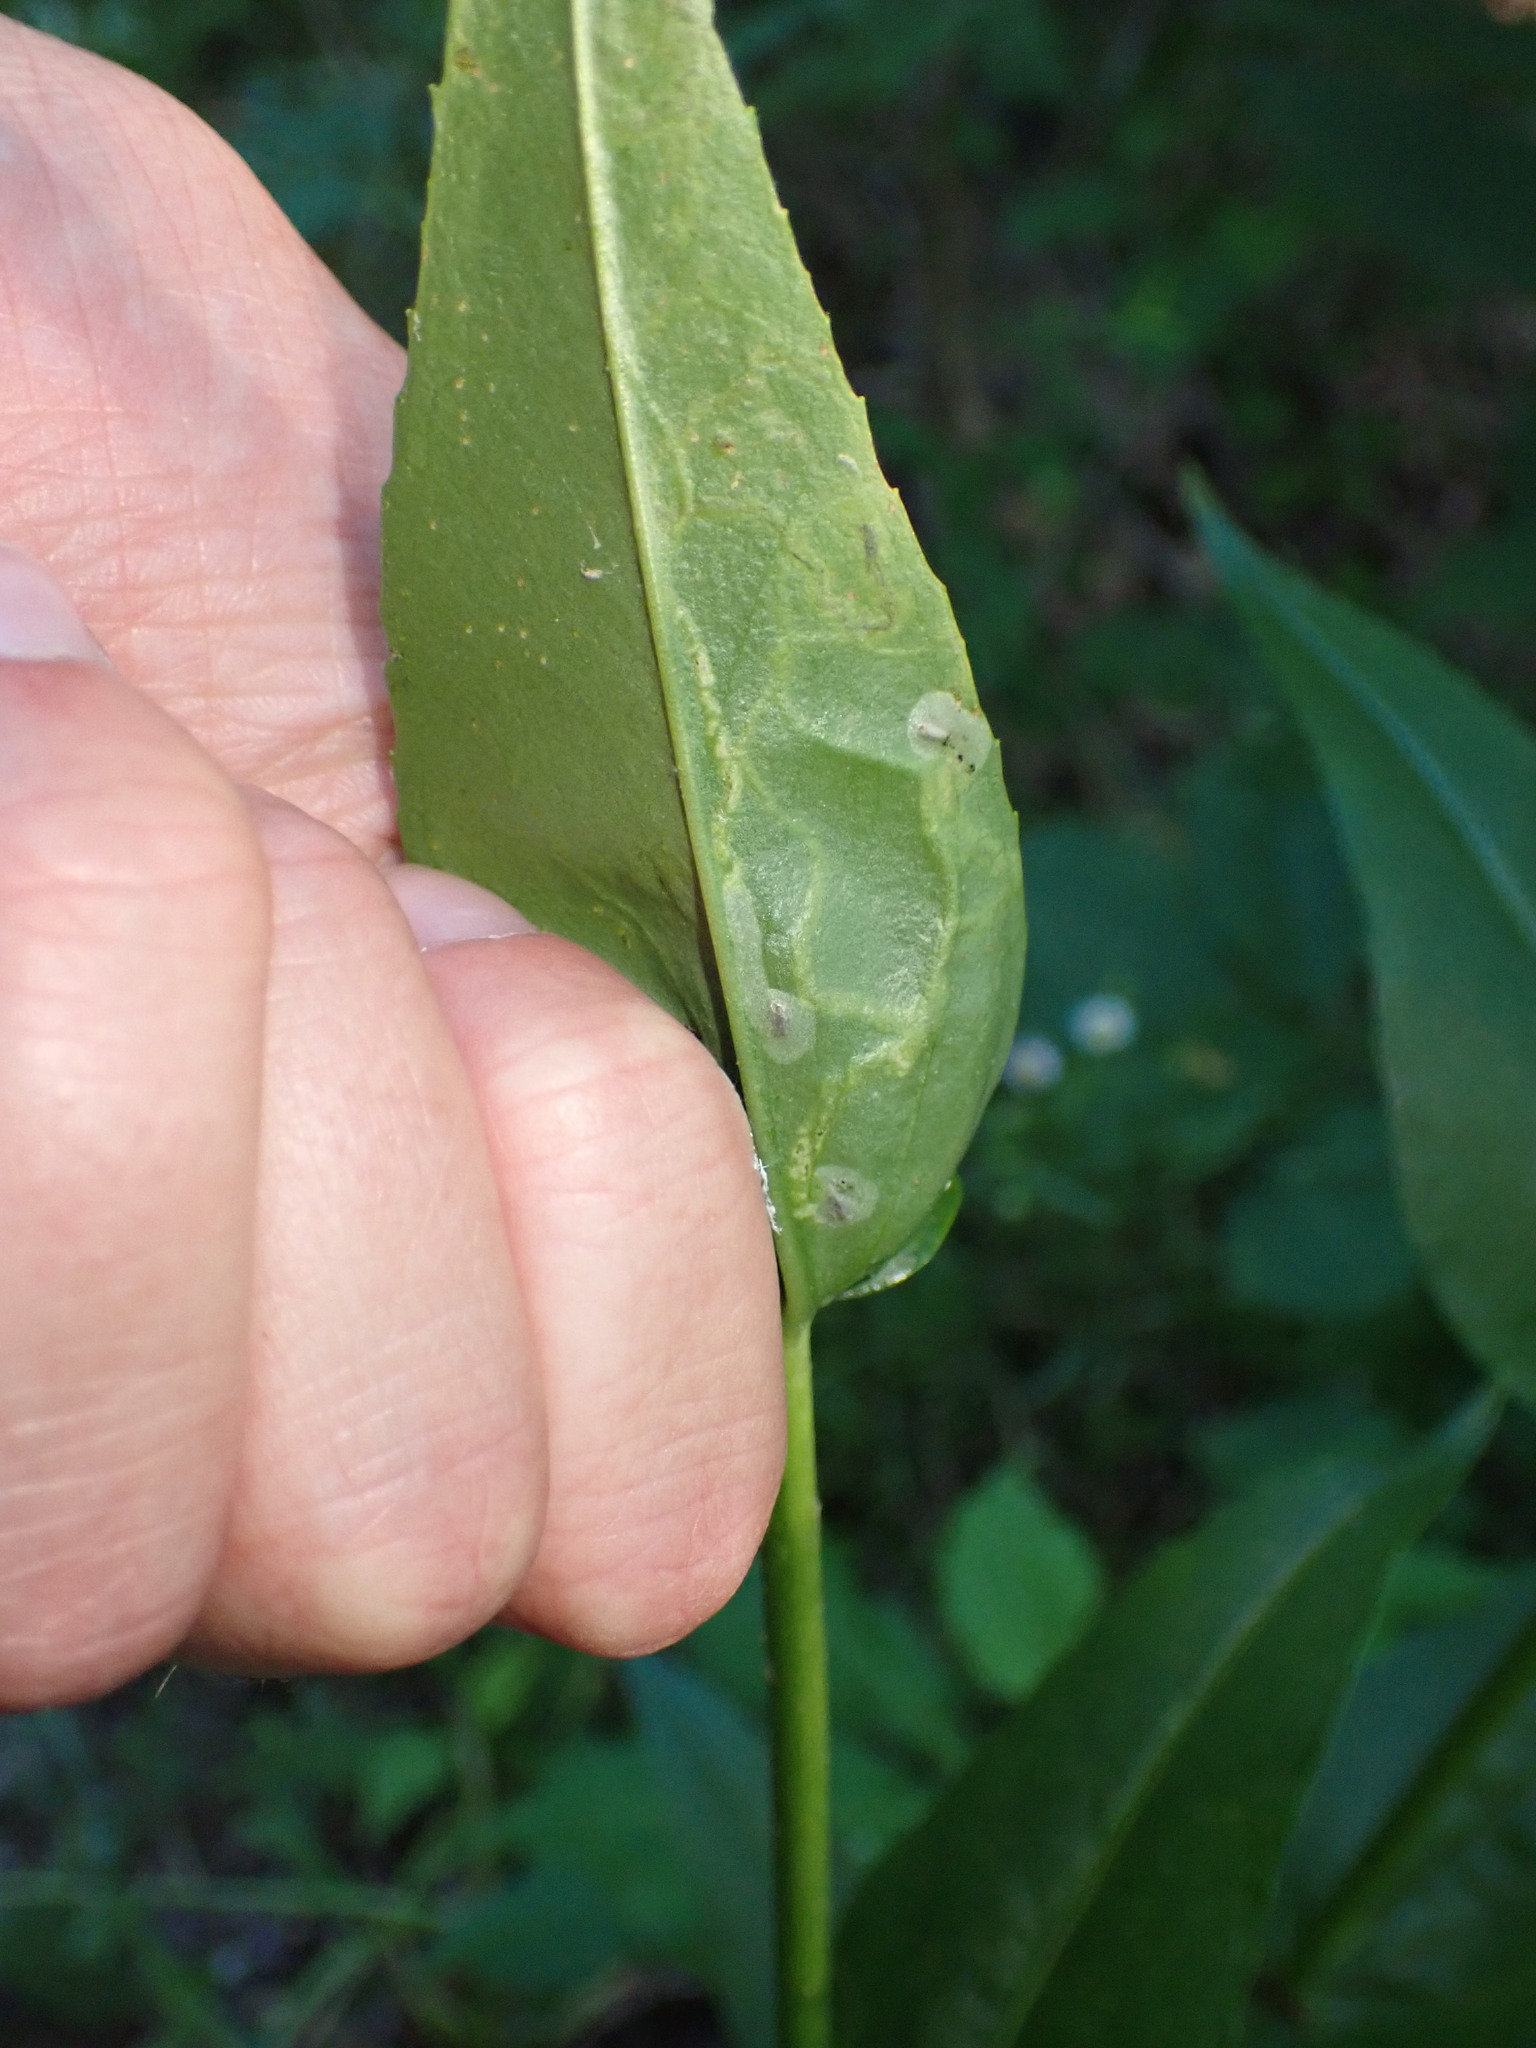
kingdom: Animalia
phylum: Arthropoda
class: Insecta
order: Diptera
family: Agromyzidae
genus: Phytomyza
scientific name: Phytomyza penstemonis
